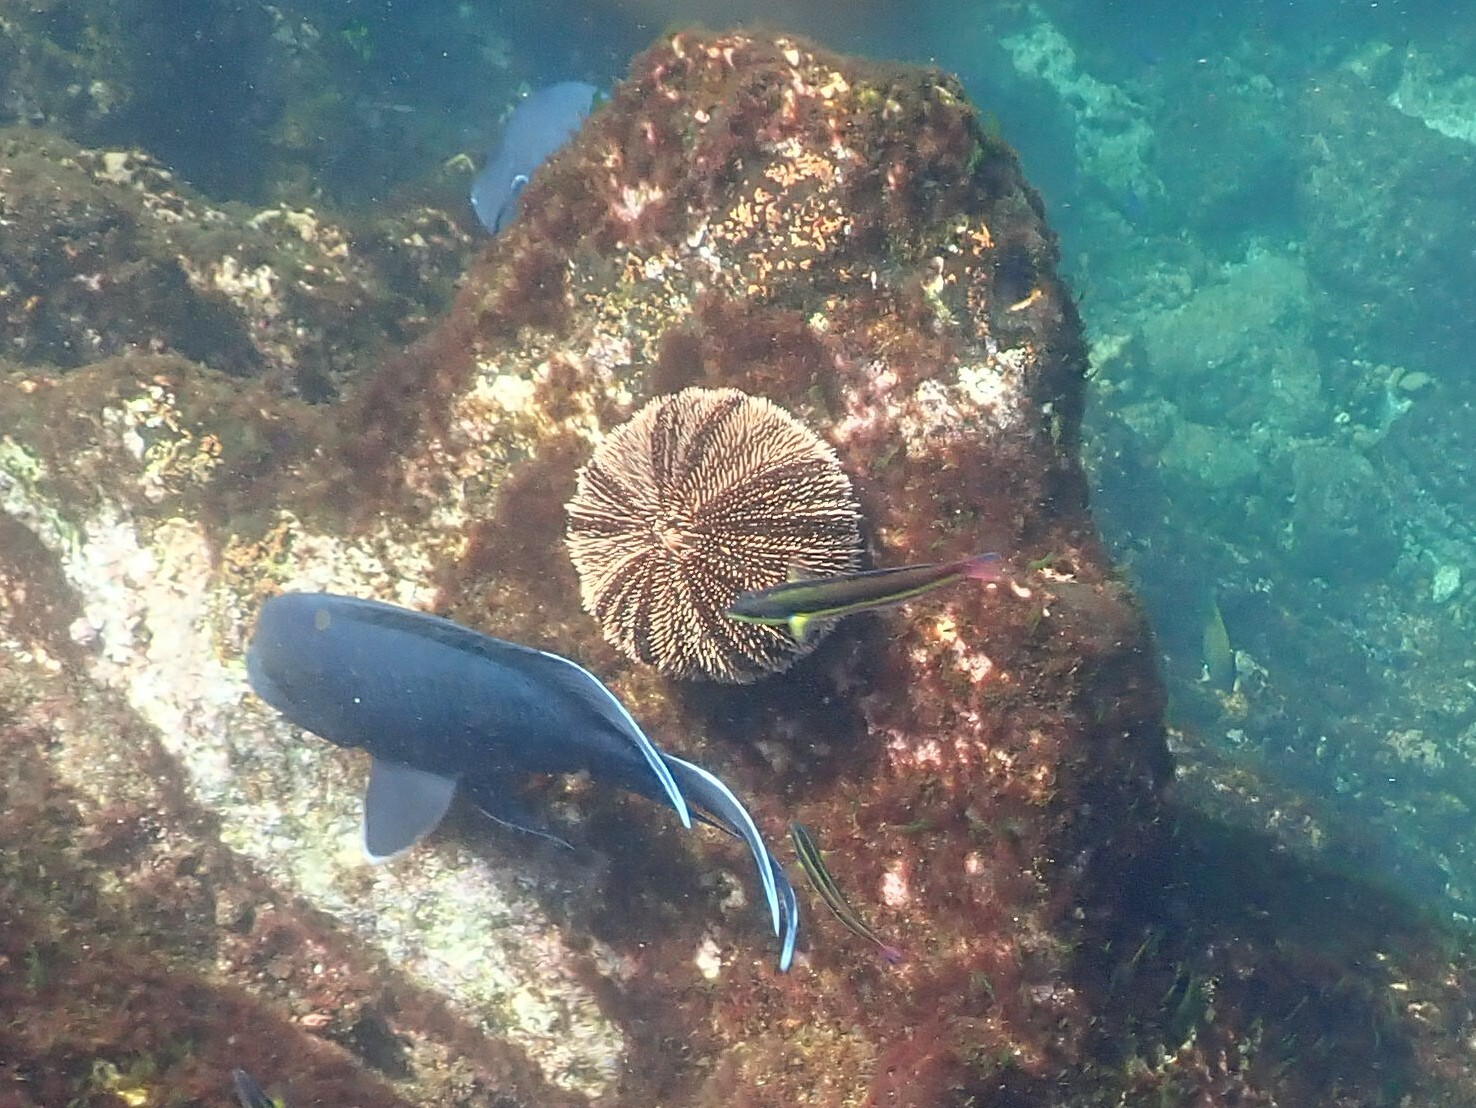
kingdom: Animalia
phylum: Echinodermata
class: Echinoidea
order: Camarodonta
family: Toxopneustidae
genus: Tripneustes
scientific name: Tripneustes depressus
